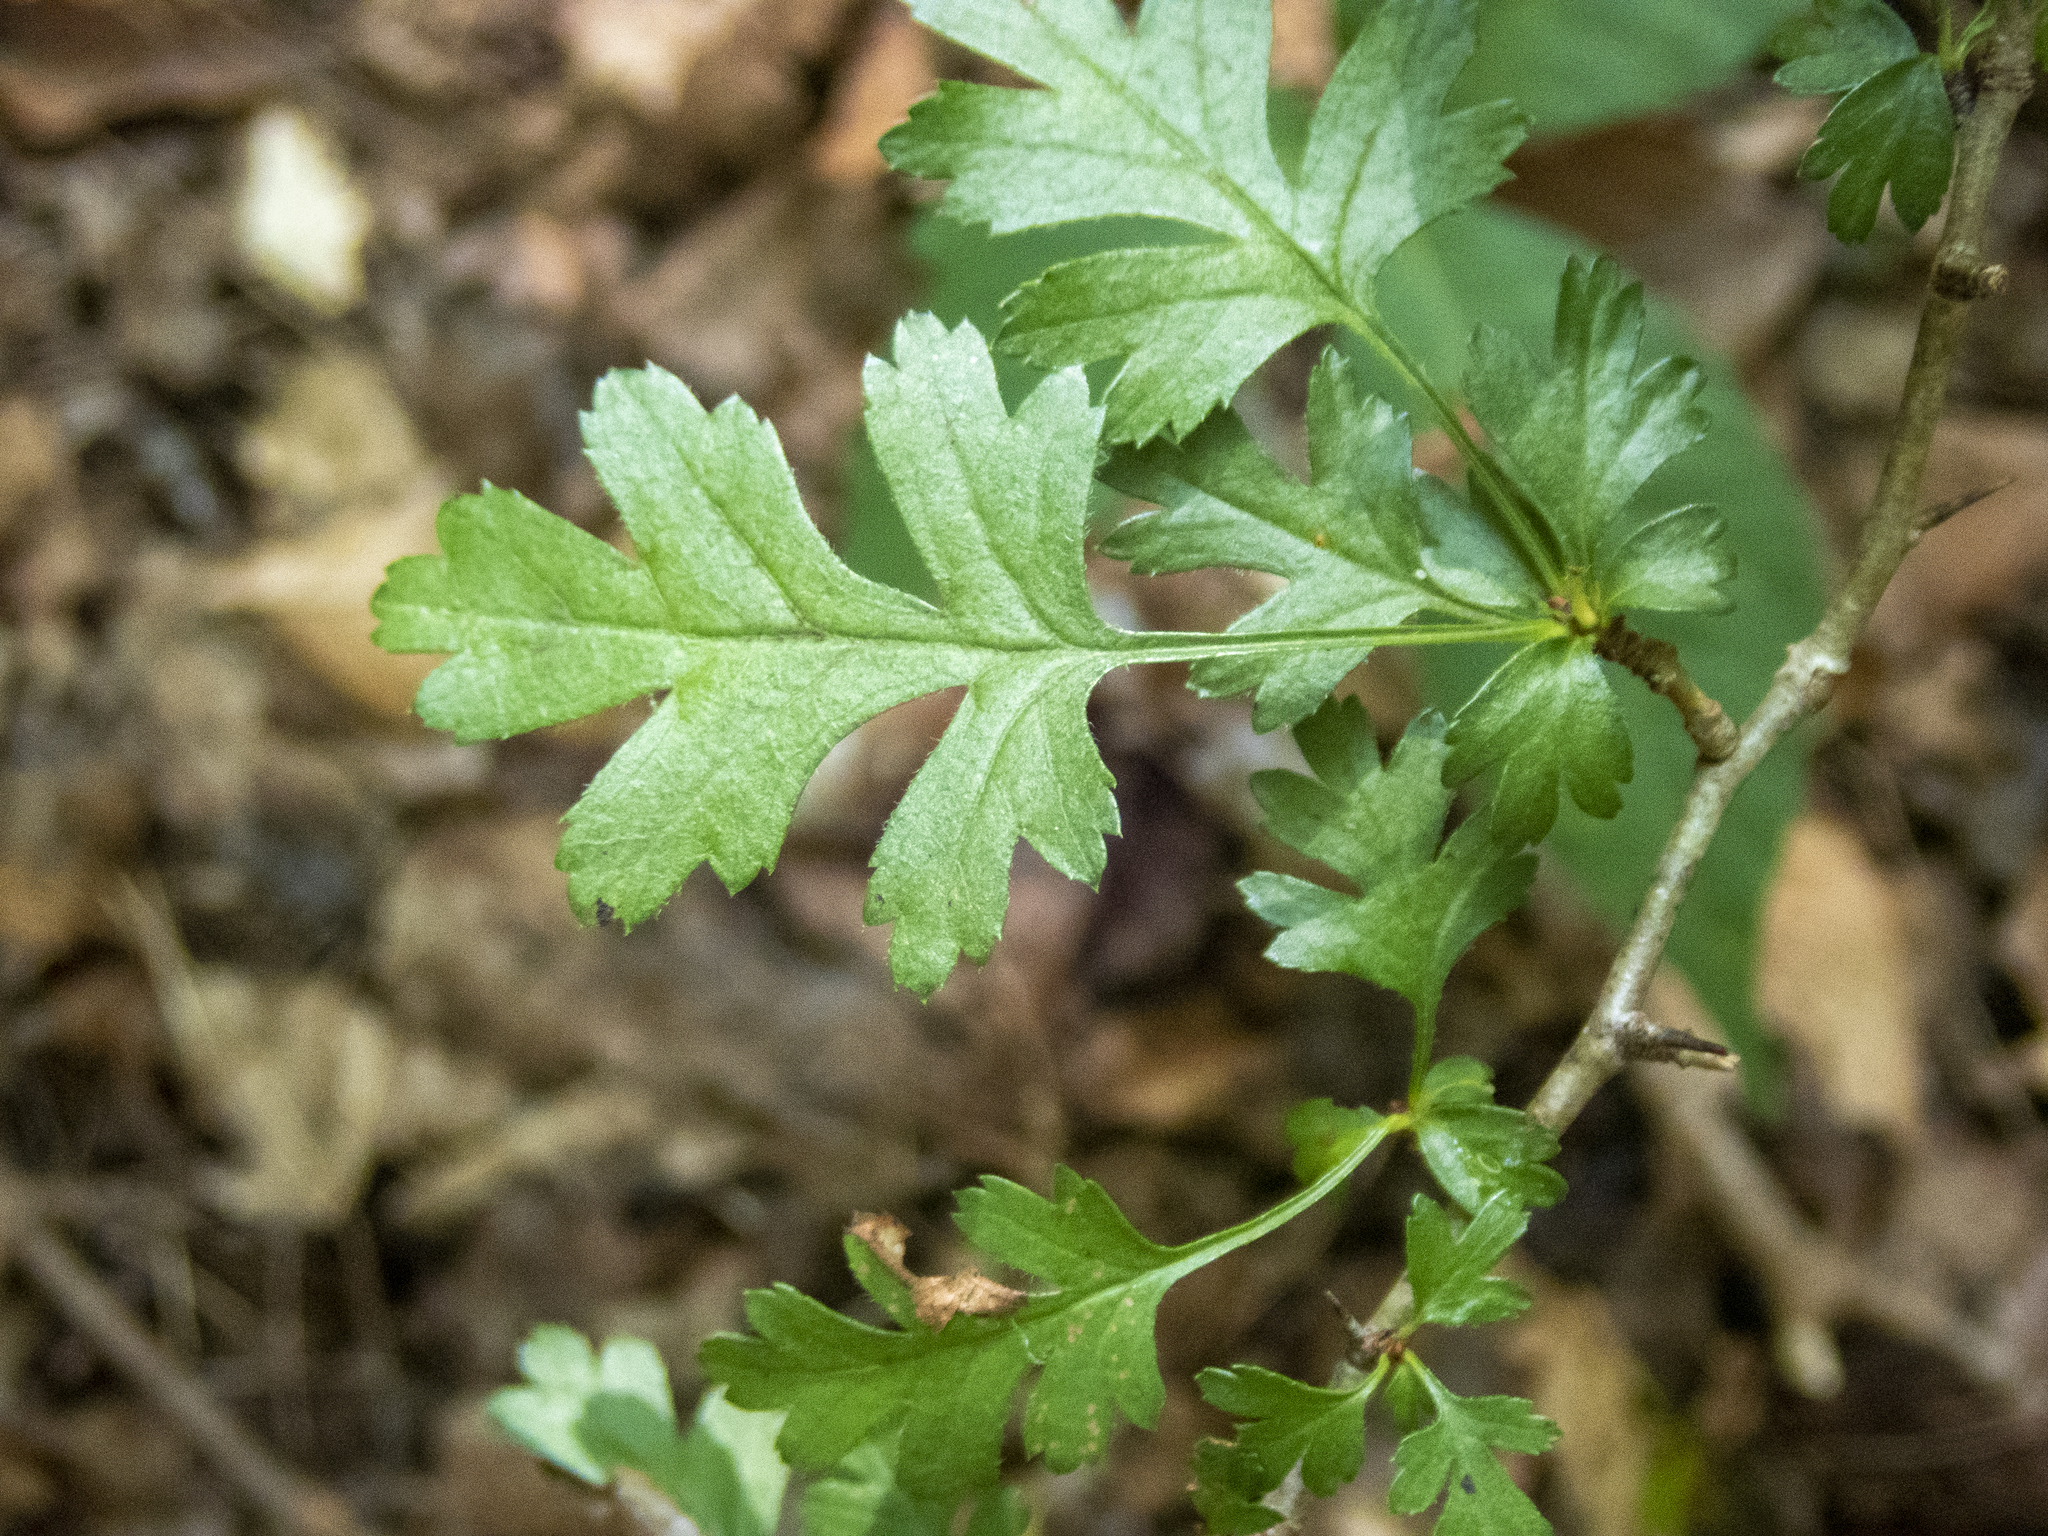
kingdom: Plantae
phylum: Tracheophyta
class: Magnoliopsida
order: Rosales
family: Rosaceae
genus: Crataegus
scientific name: Crataegus monogyna
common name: Hawthorn
